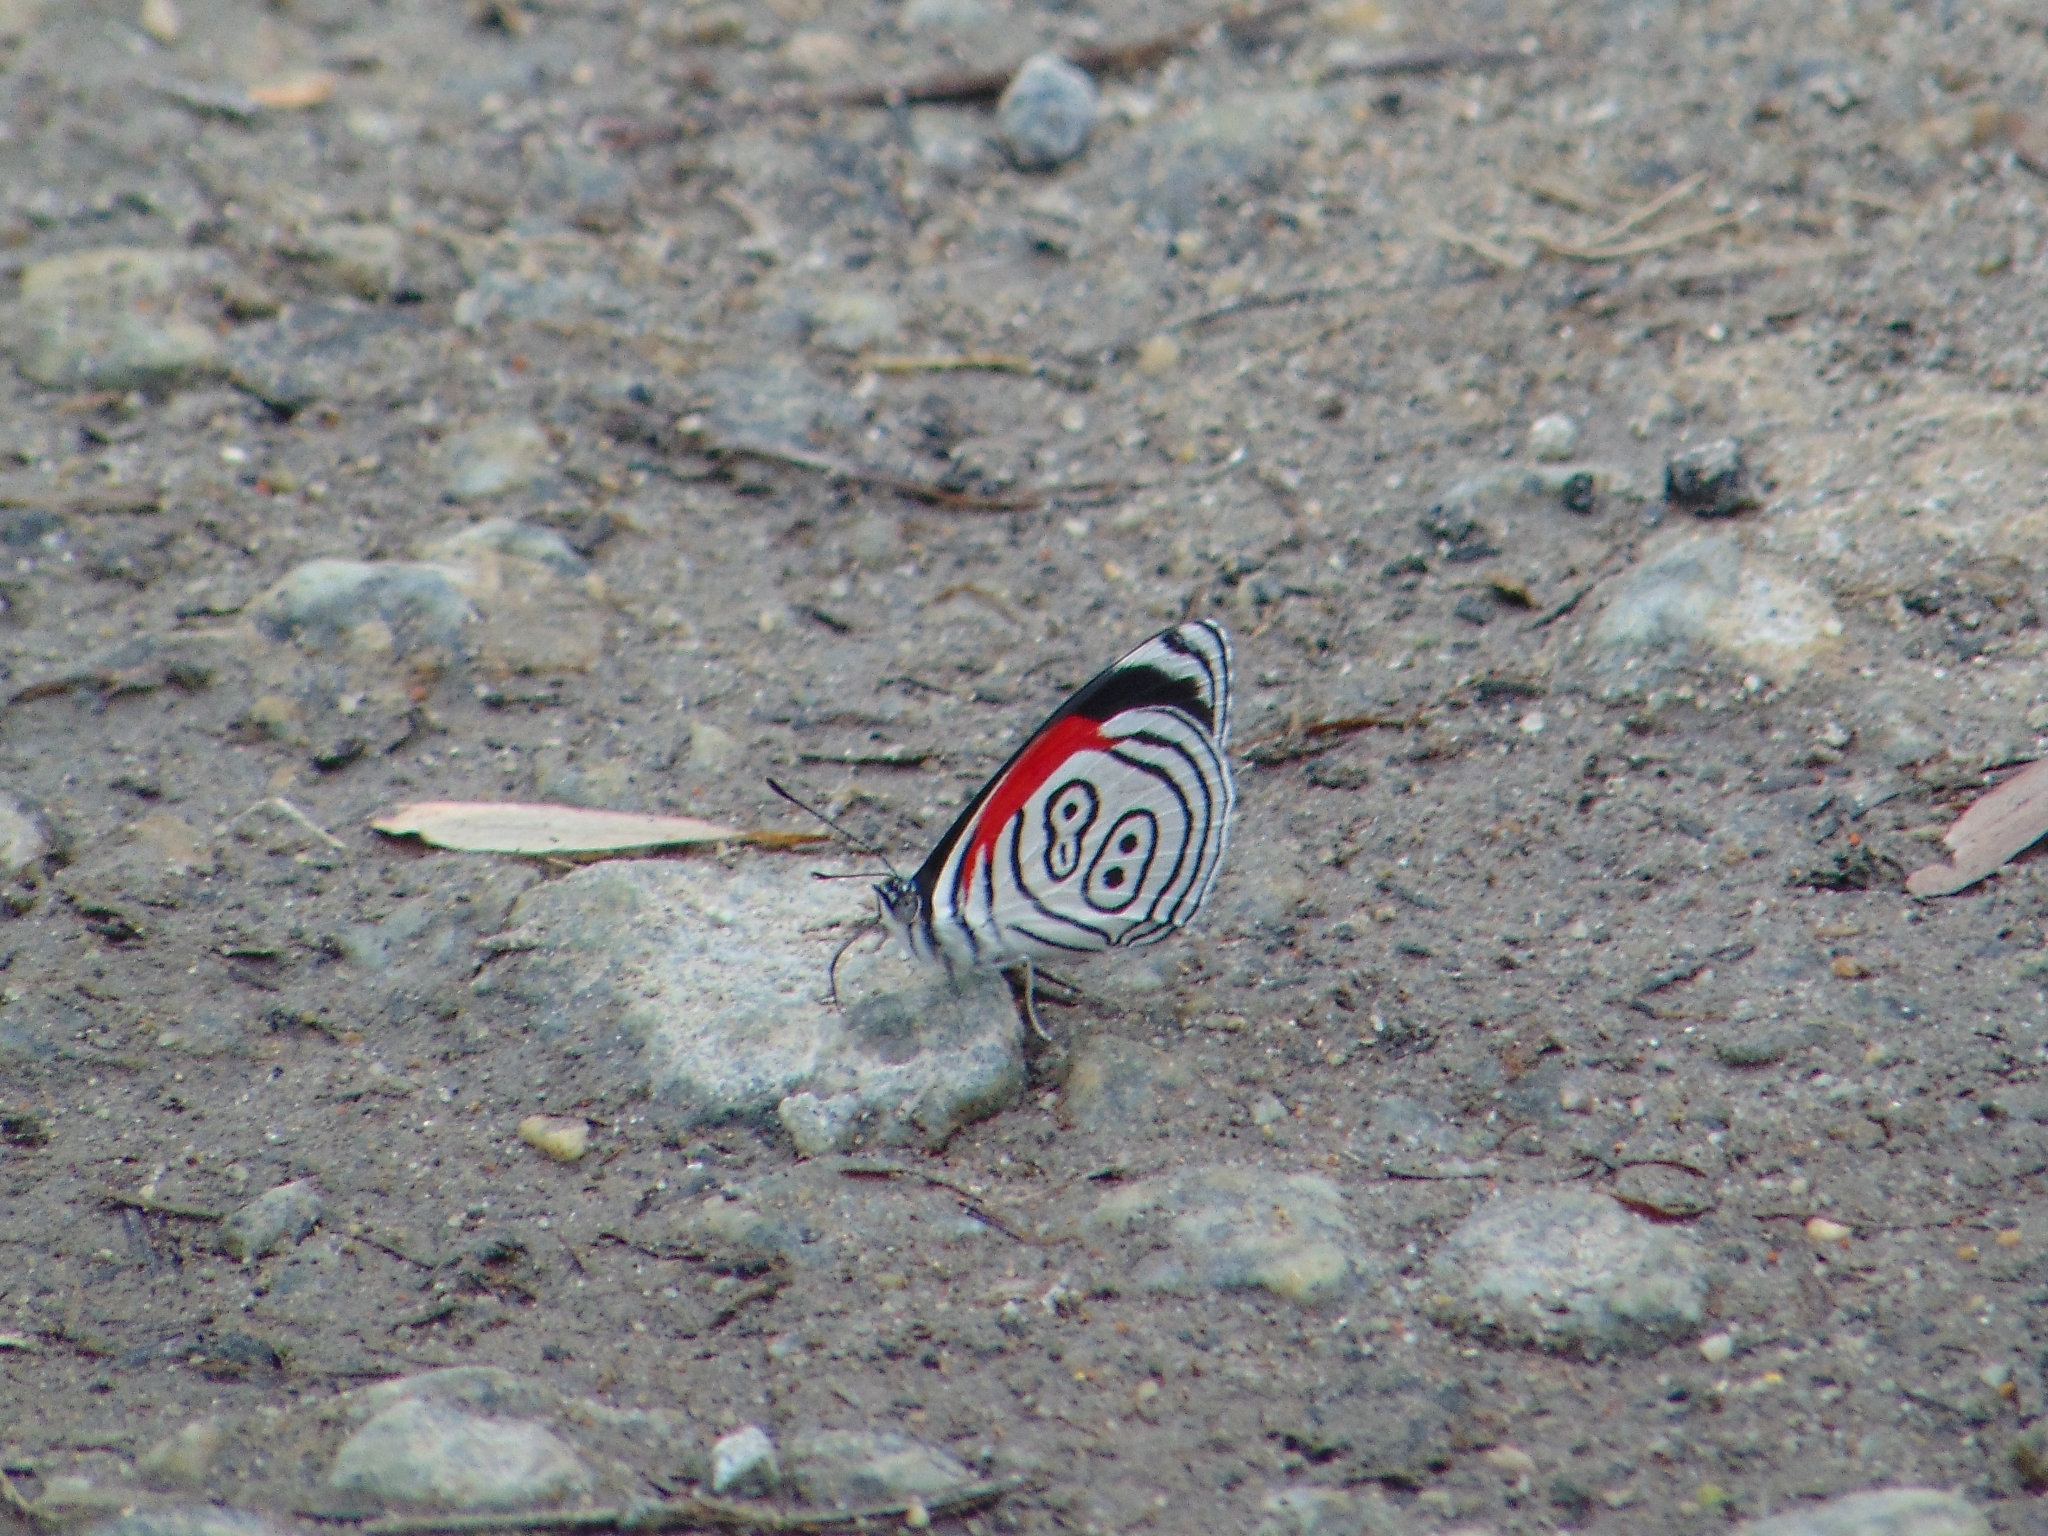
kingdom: Animalia
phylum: Arthropoda
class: Insecta
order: Lepidoptera
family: Nymphalidae
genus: Diaethria
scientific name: Diaethria clymena
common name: Widespread eighty-eight
